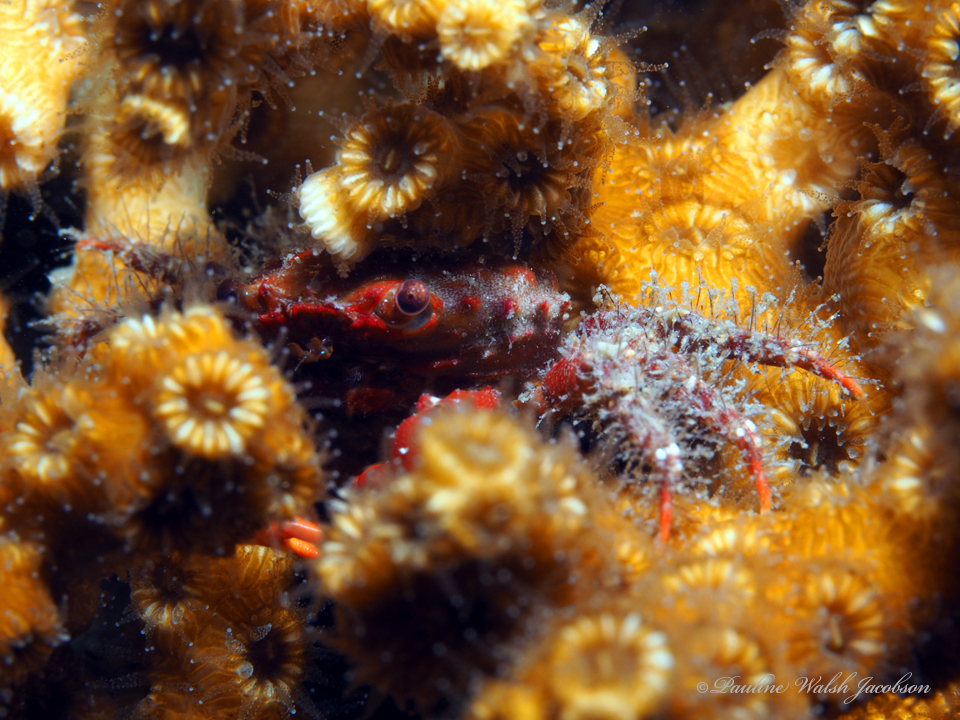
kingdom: Animalia
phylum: Arthropoda
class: Malacostraca
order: Decapoda
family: Mithracidae
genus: Mithraculus
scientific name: Mithraculus forceps
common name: Red-ridged clinging crab
